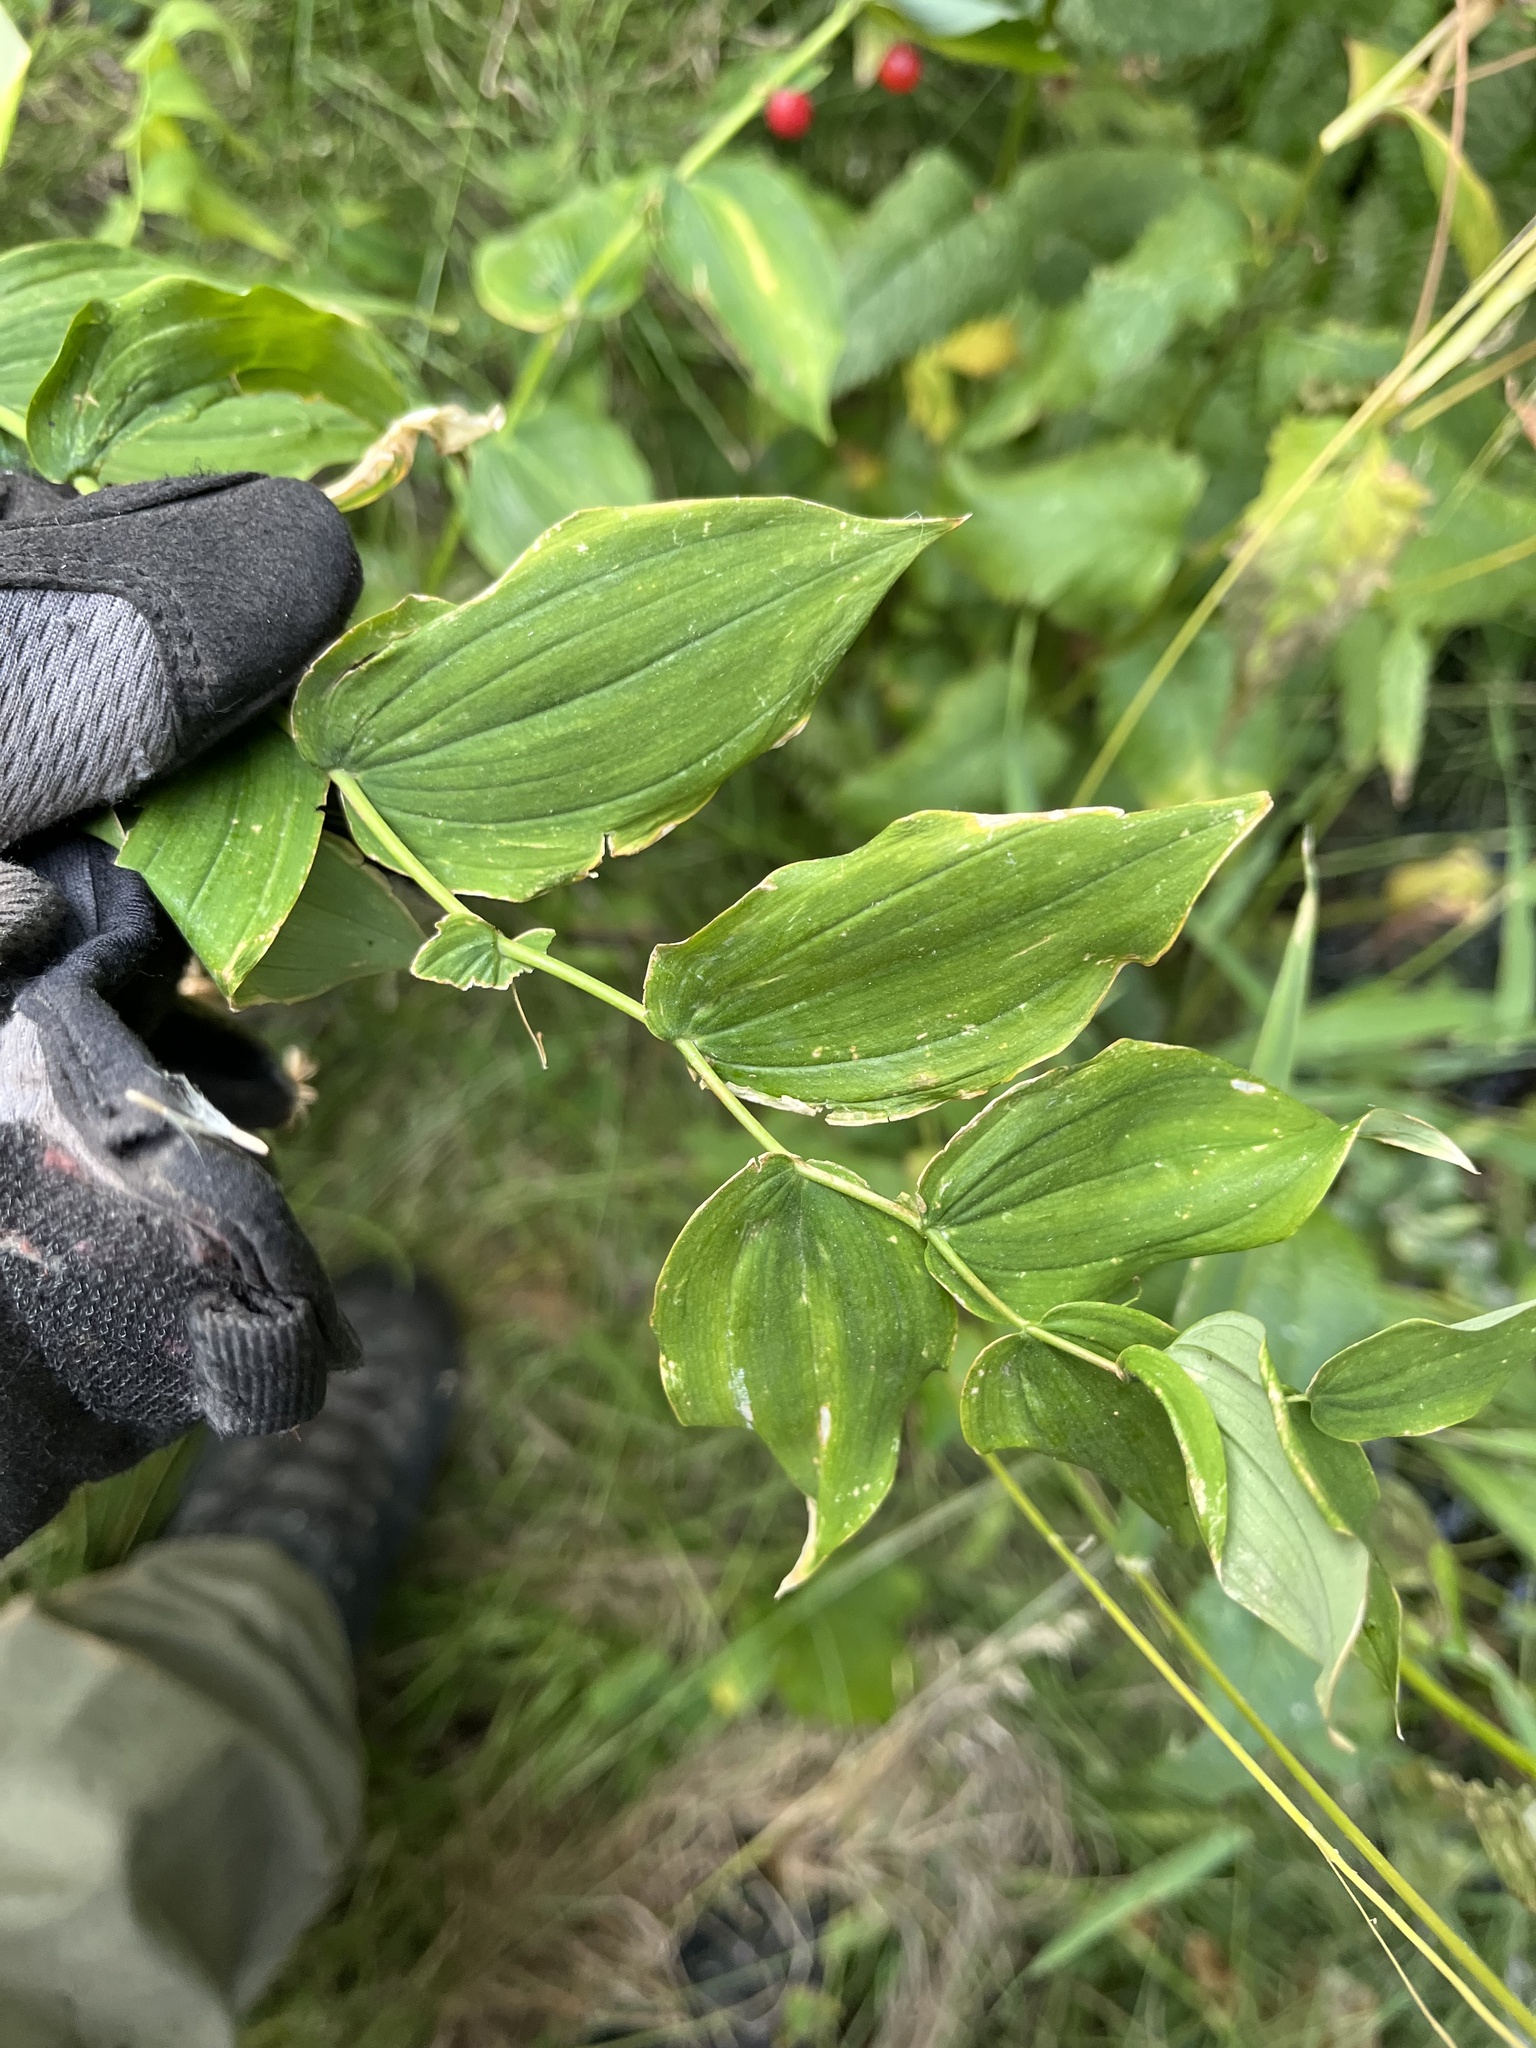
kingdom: Plantae
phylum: Tracheophyta
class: Liliopsida
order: Liliales
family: Liliaceae
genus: Streptopus
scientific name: Streptopus amplexifolius
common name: Clasp twisted stalk
